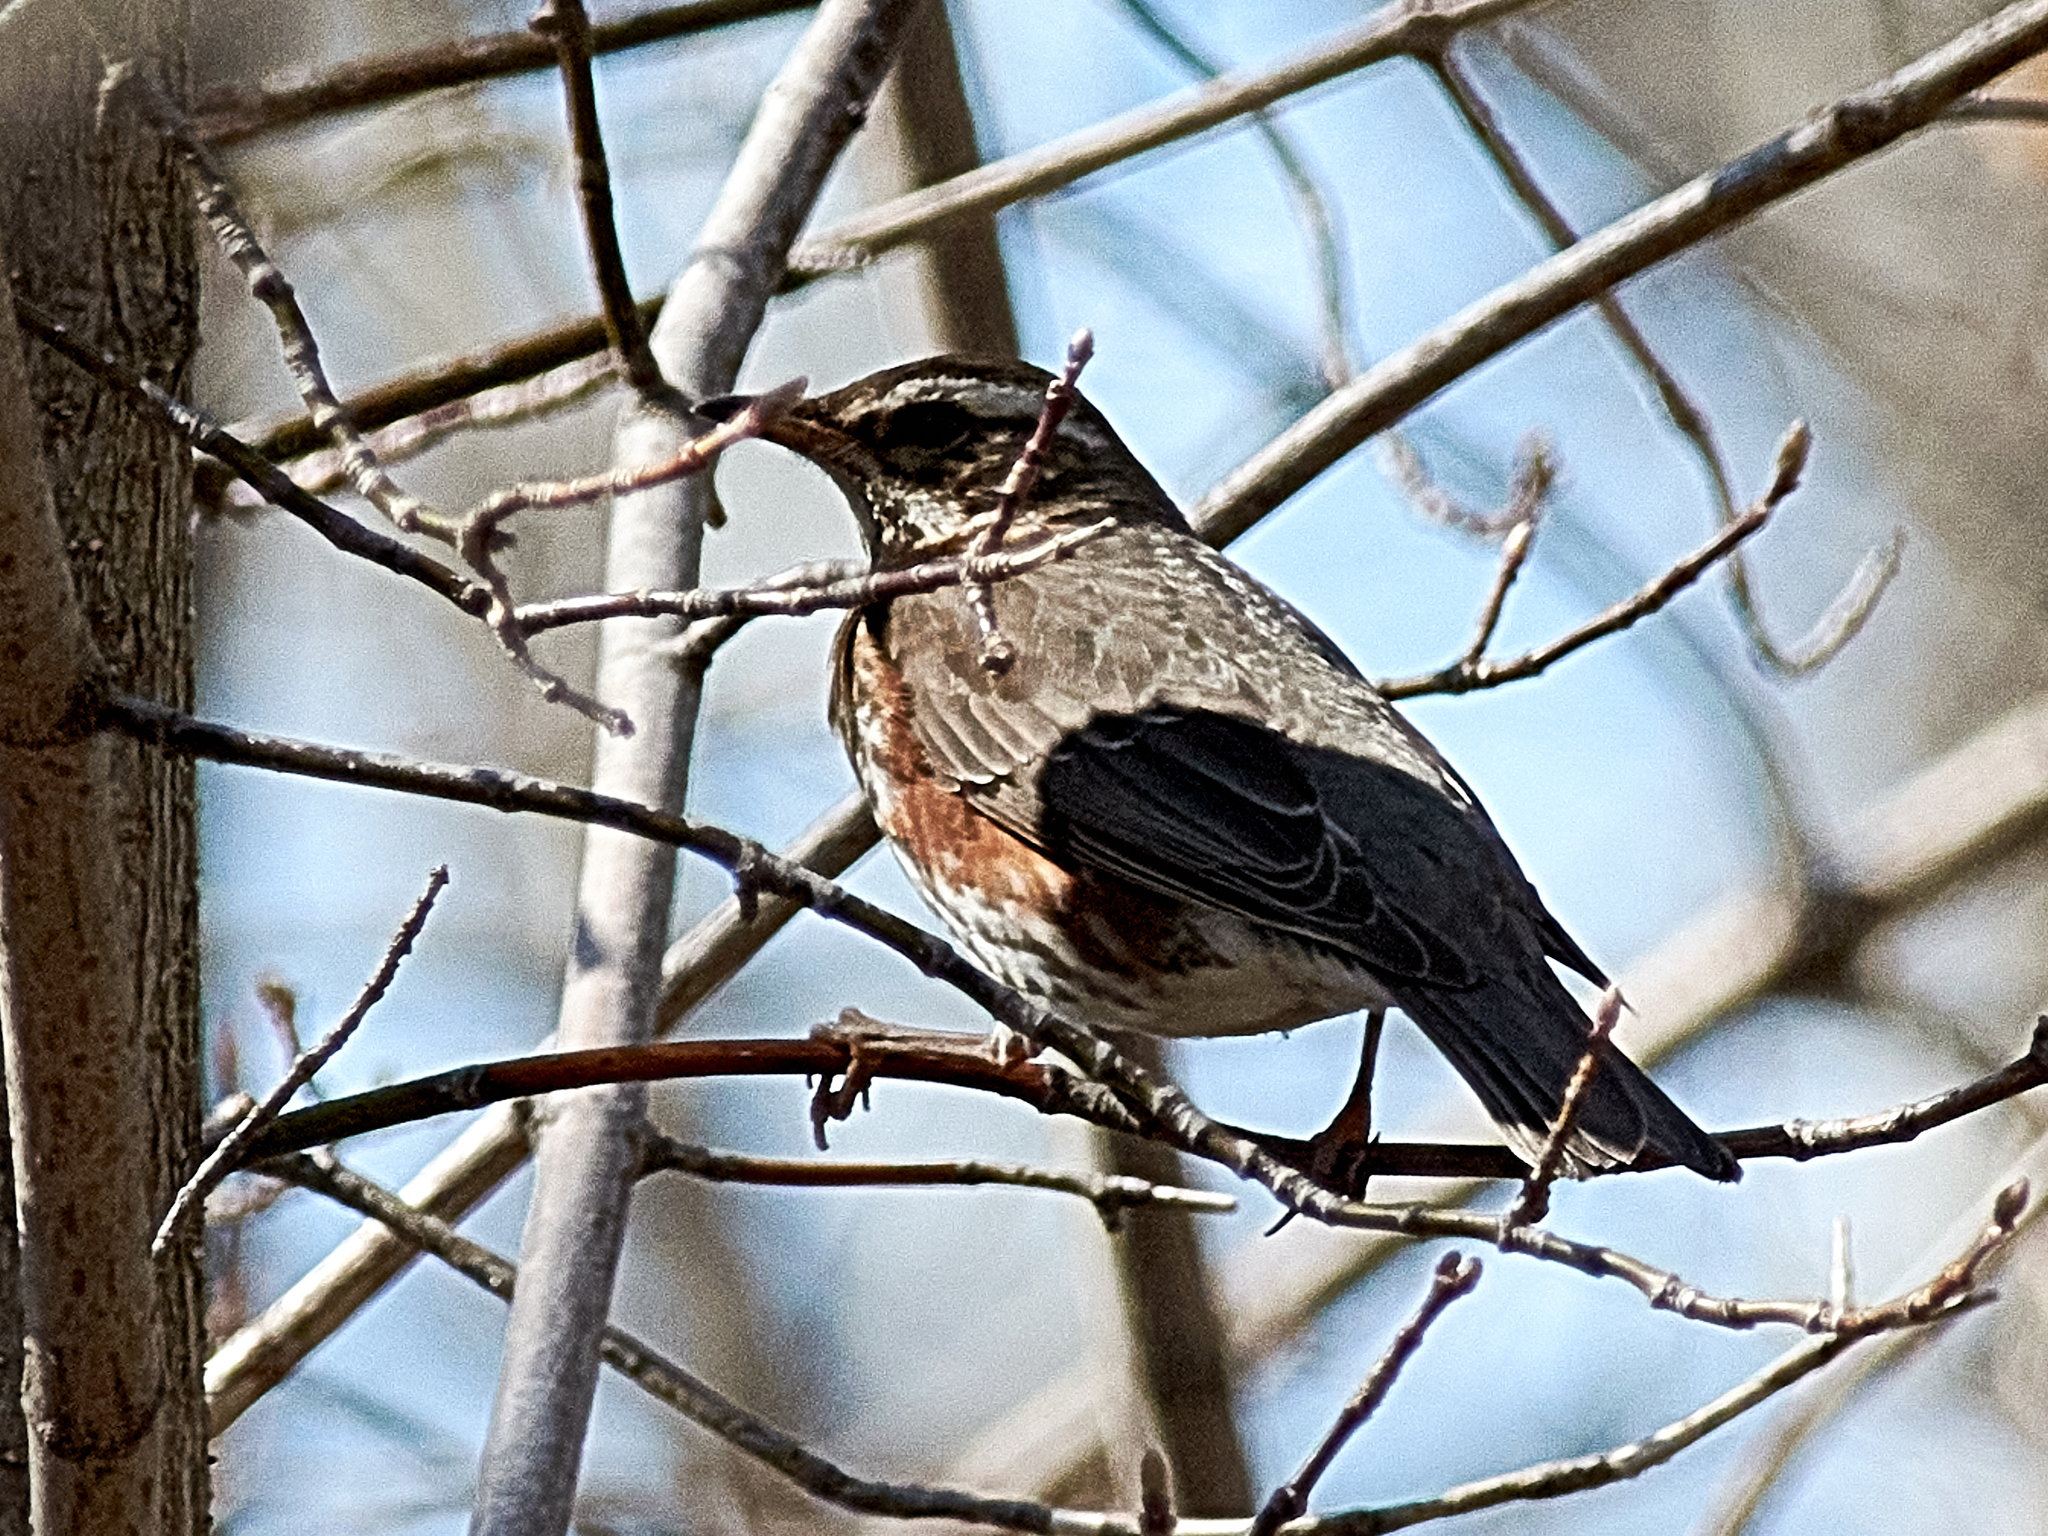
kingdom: Animalia
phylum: Chordata
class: Aves
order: Passeriformes
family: Turdidae
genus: Turdus
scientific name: Turdus iliacus
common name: Redwing
